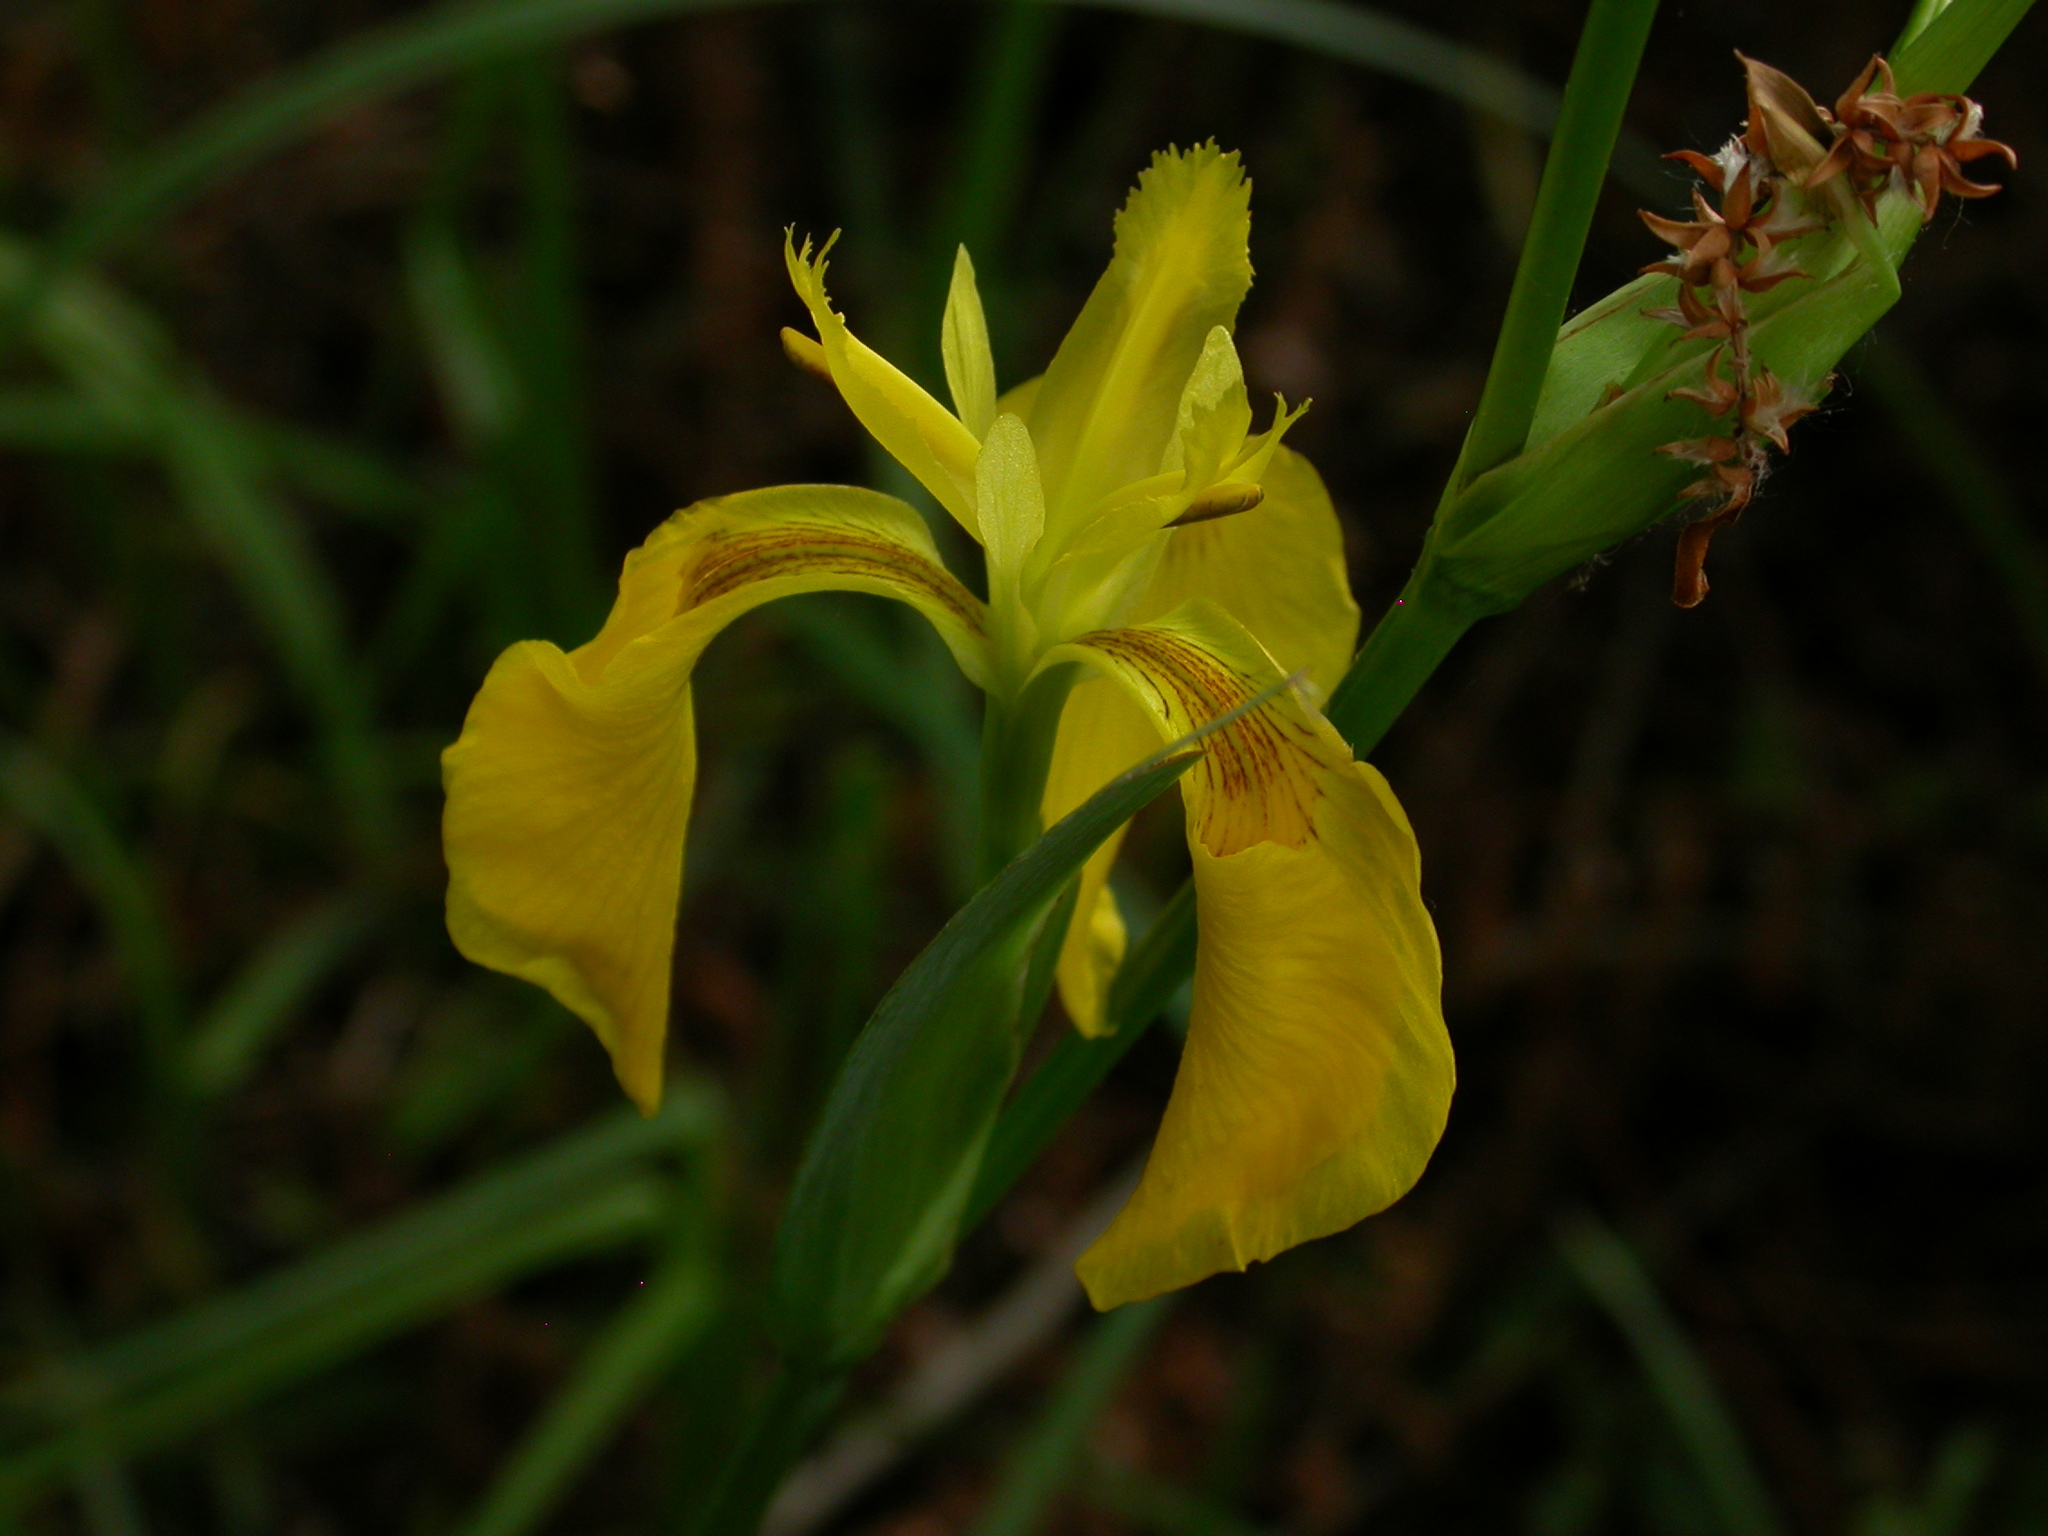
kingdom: Plantae
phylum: Tracheophyta
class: Liliopsida
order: Asparagales
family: Iridaceae
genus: Iris
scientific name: Iris pseudacorus
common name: Yellow flag
